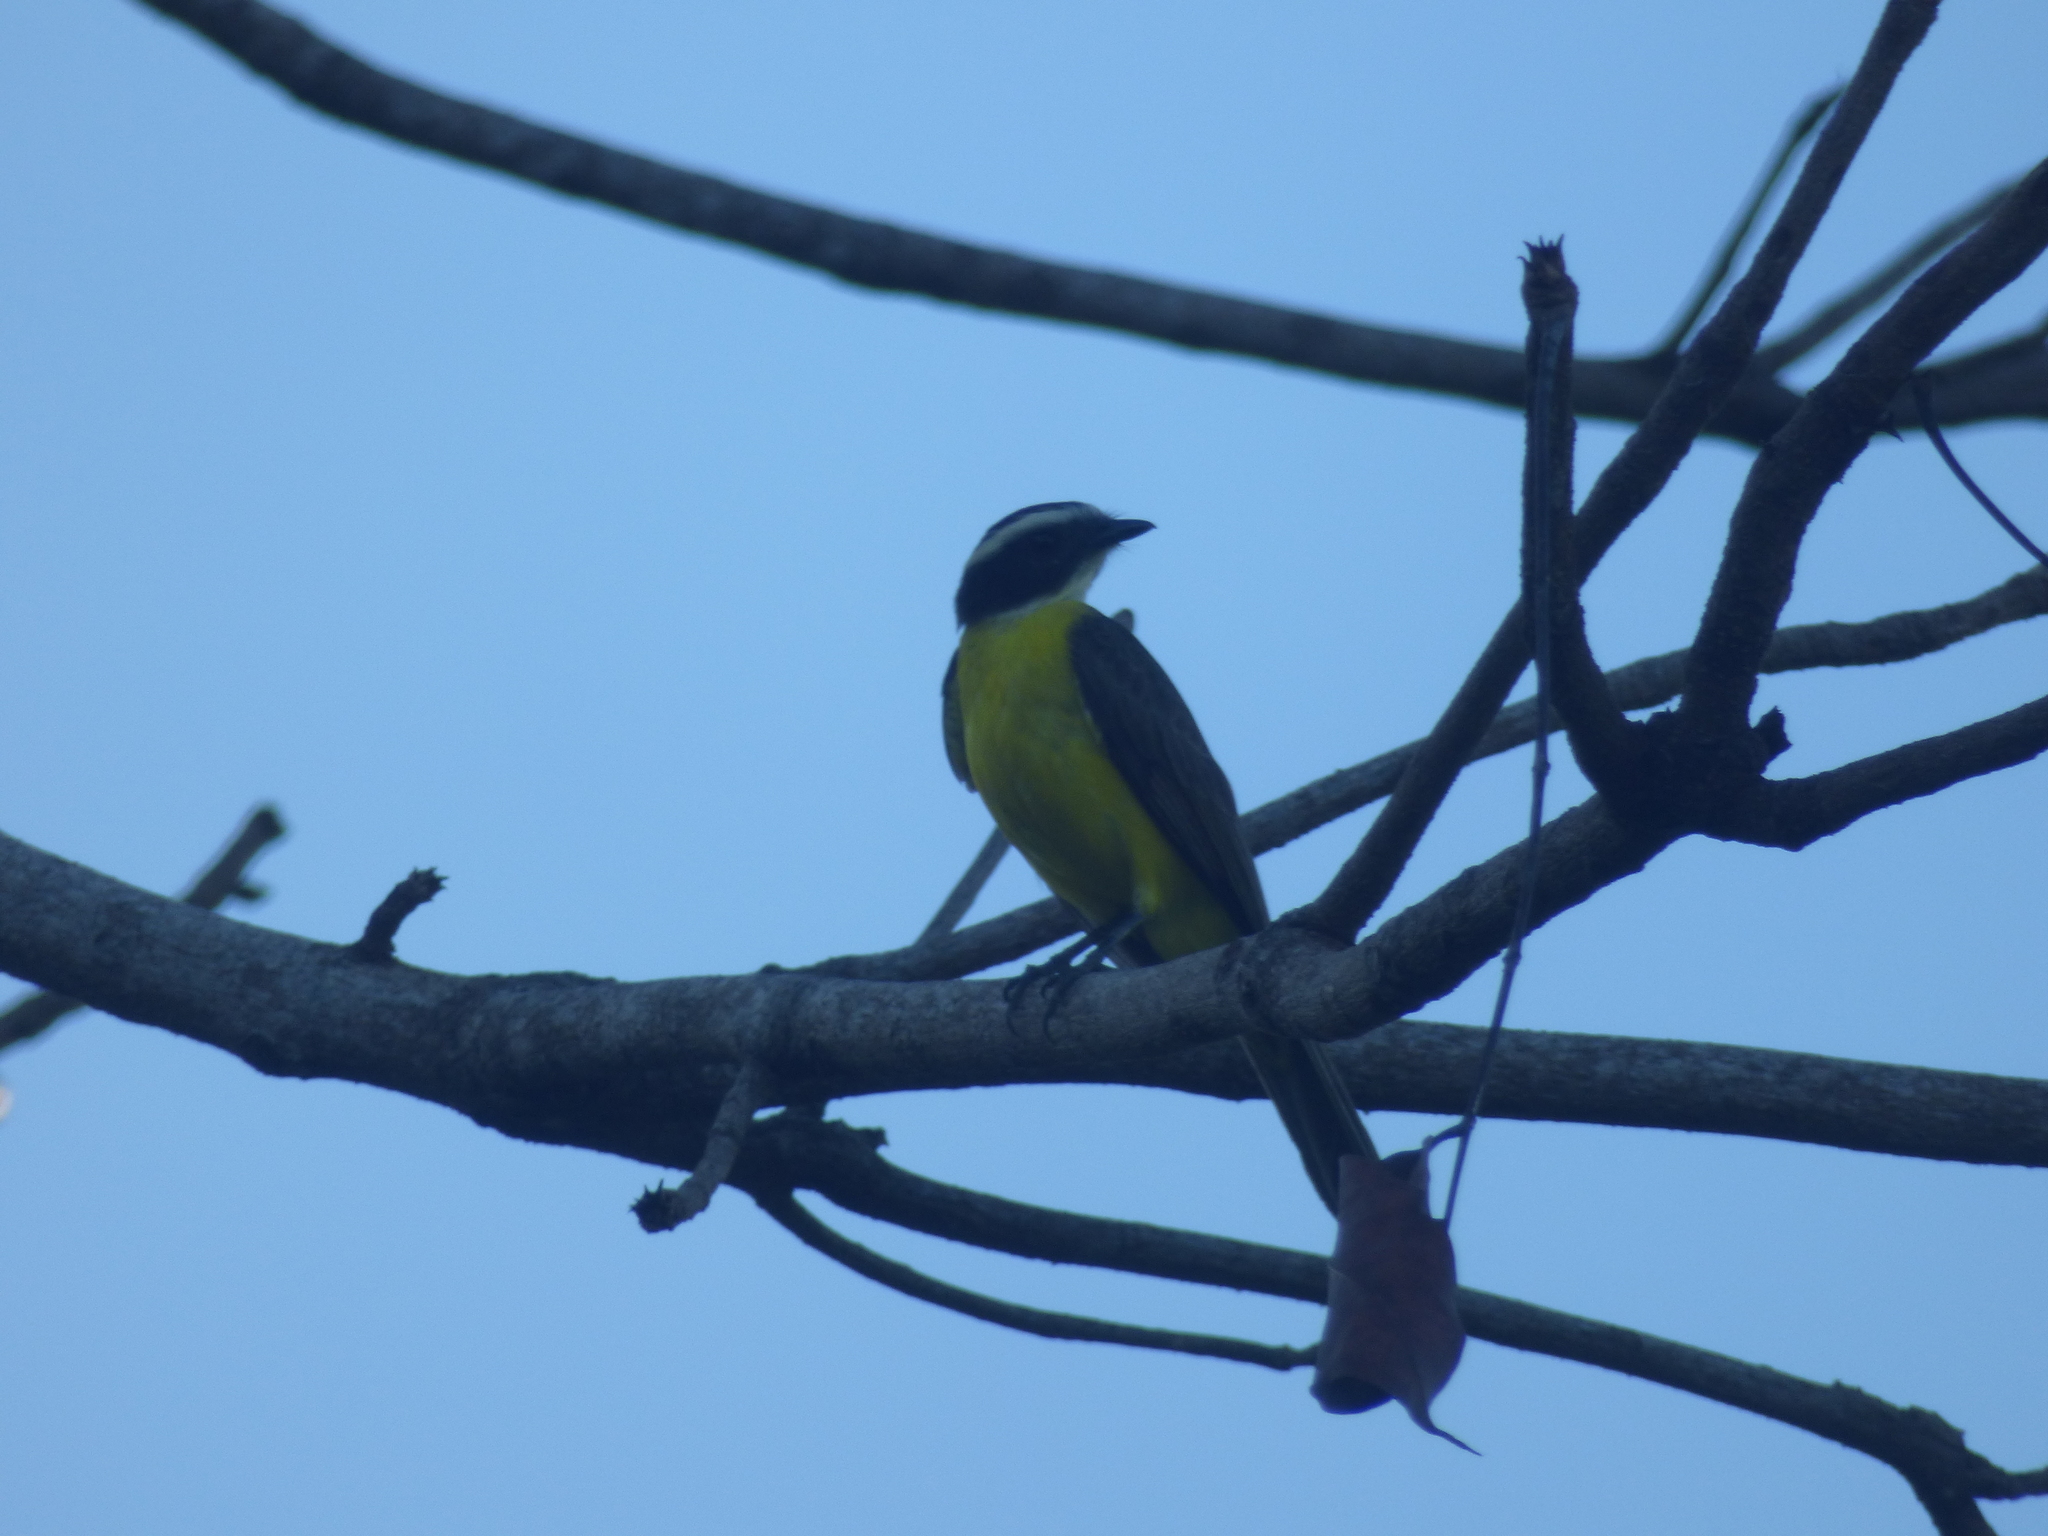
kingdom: Animalia
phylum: Chordata
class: Aves
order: Passeriformes
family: Tyrannidae
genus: Myiozetetes
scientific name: Myiozetetes cayanensis
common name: Rusty-margined flycatcher
